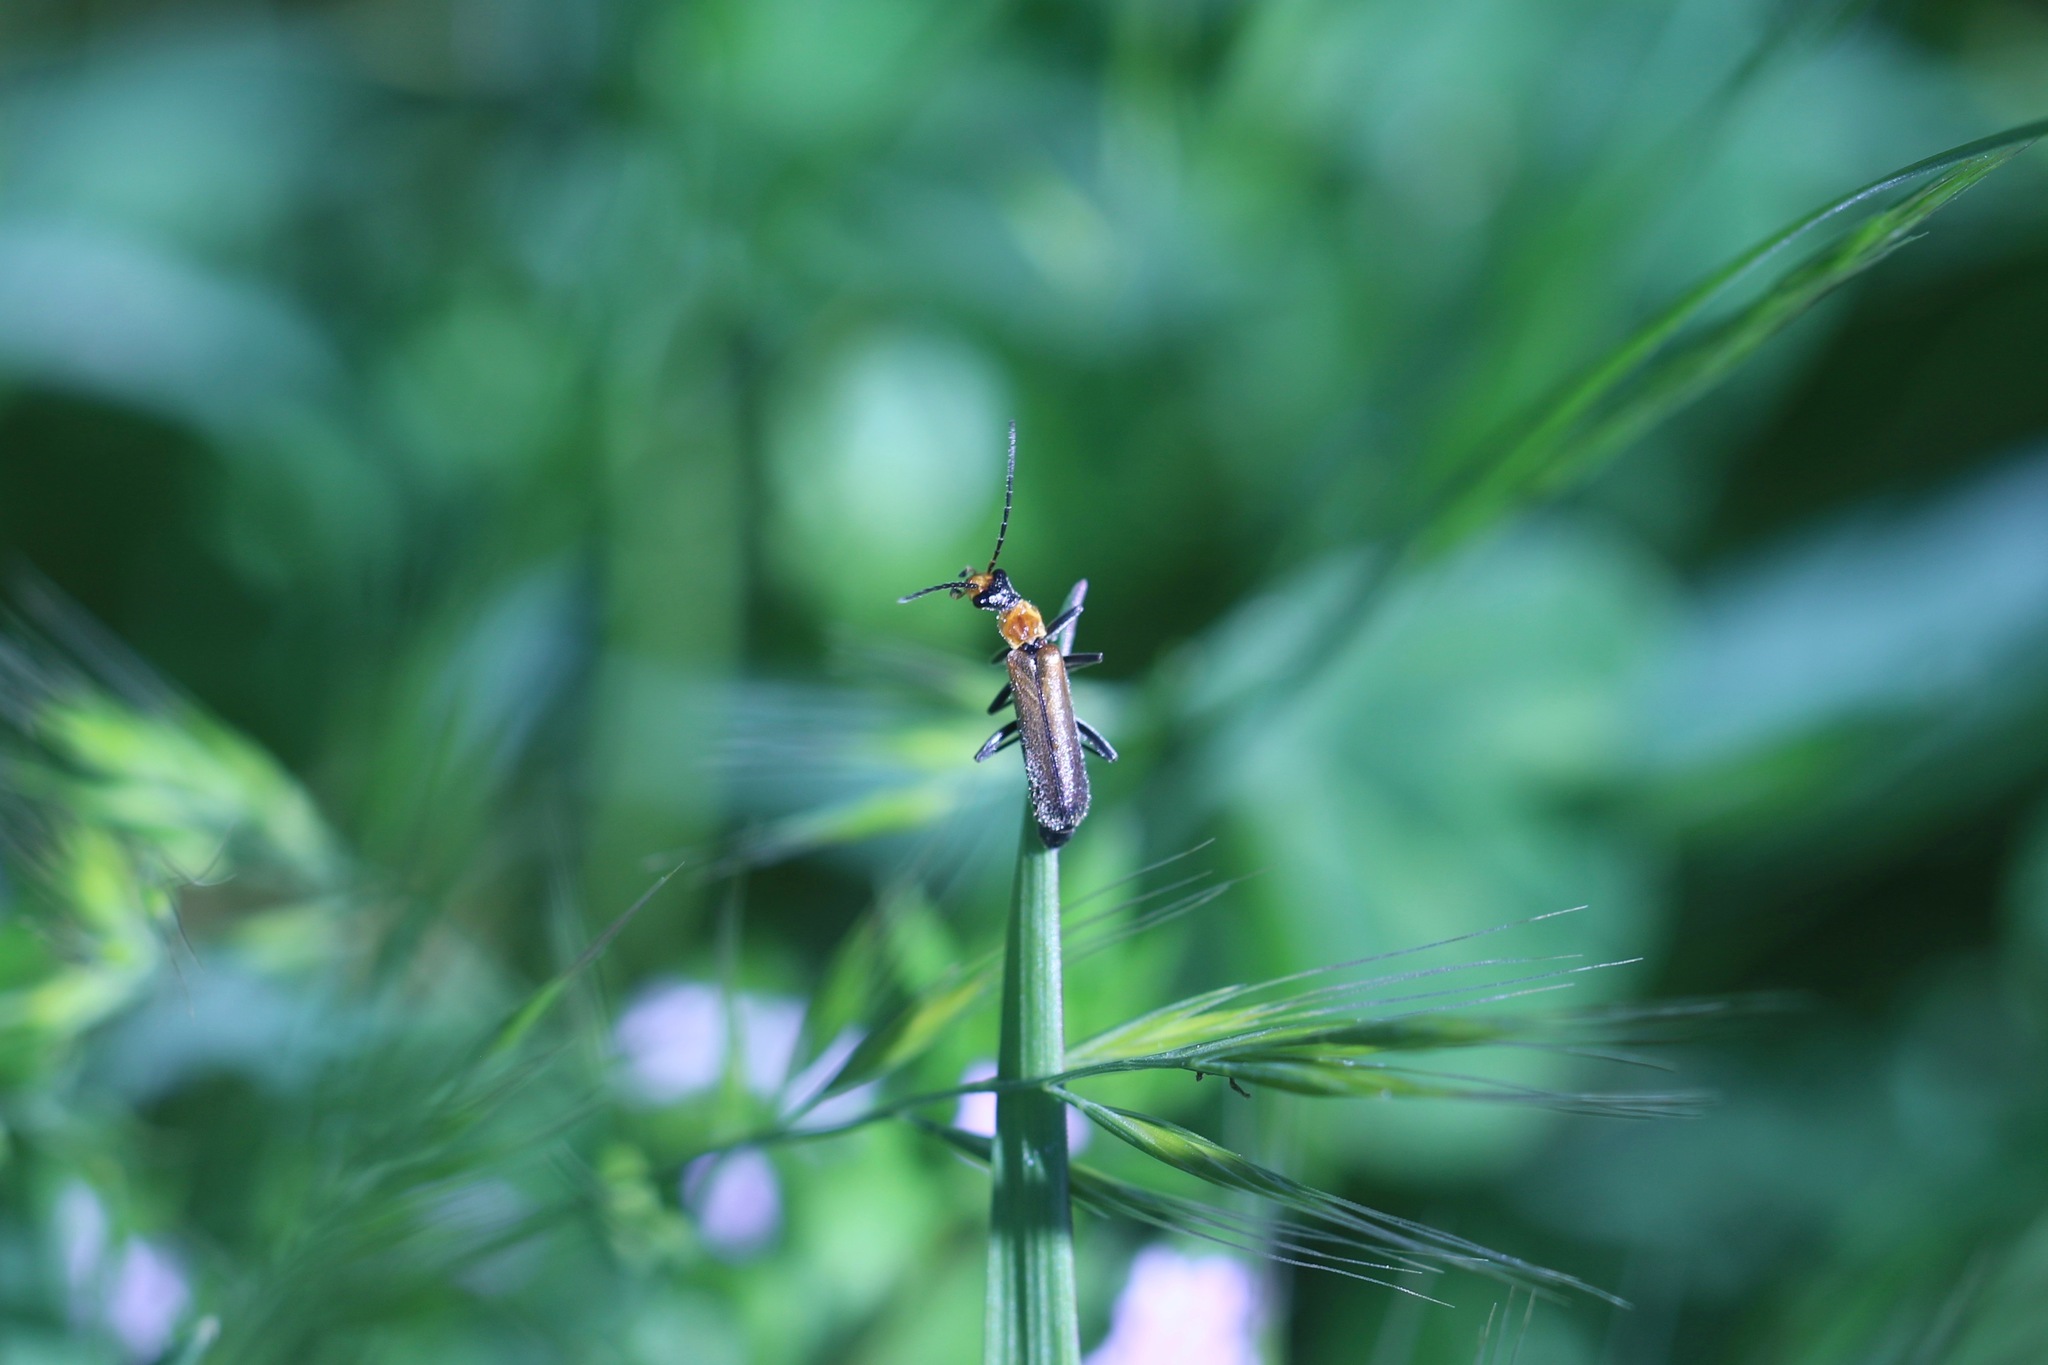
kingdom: Animalia
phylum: Arthropoda
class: Insecta
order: Coleoptera
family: Cantharidae
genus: Dichelotarsus
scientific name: Dichelotarsus cavicollis
